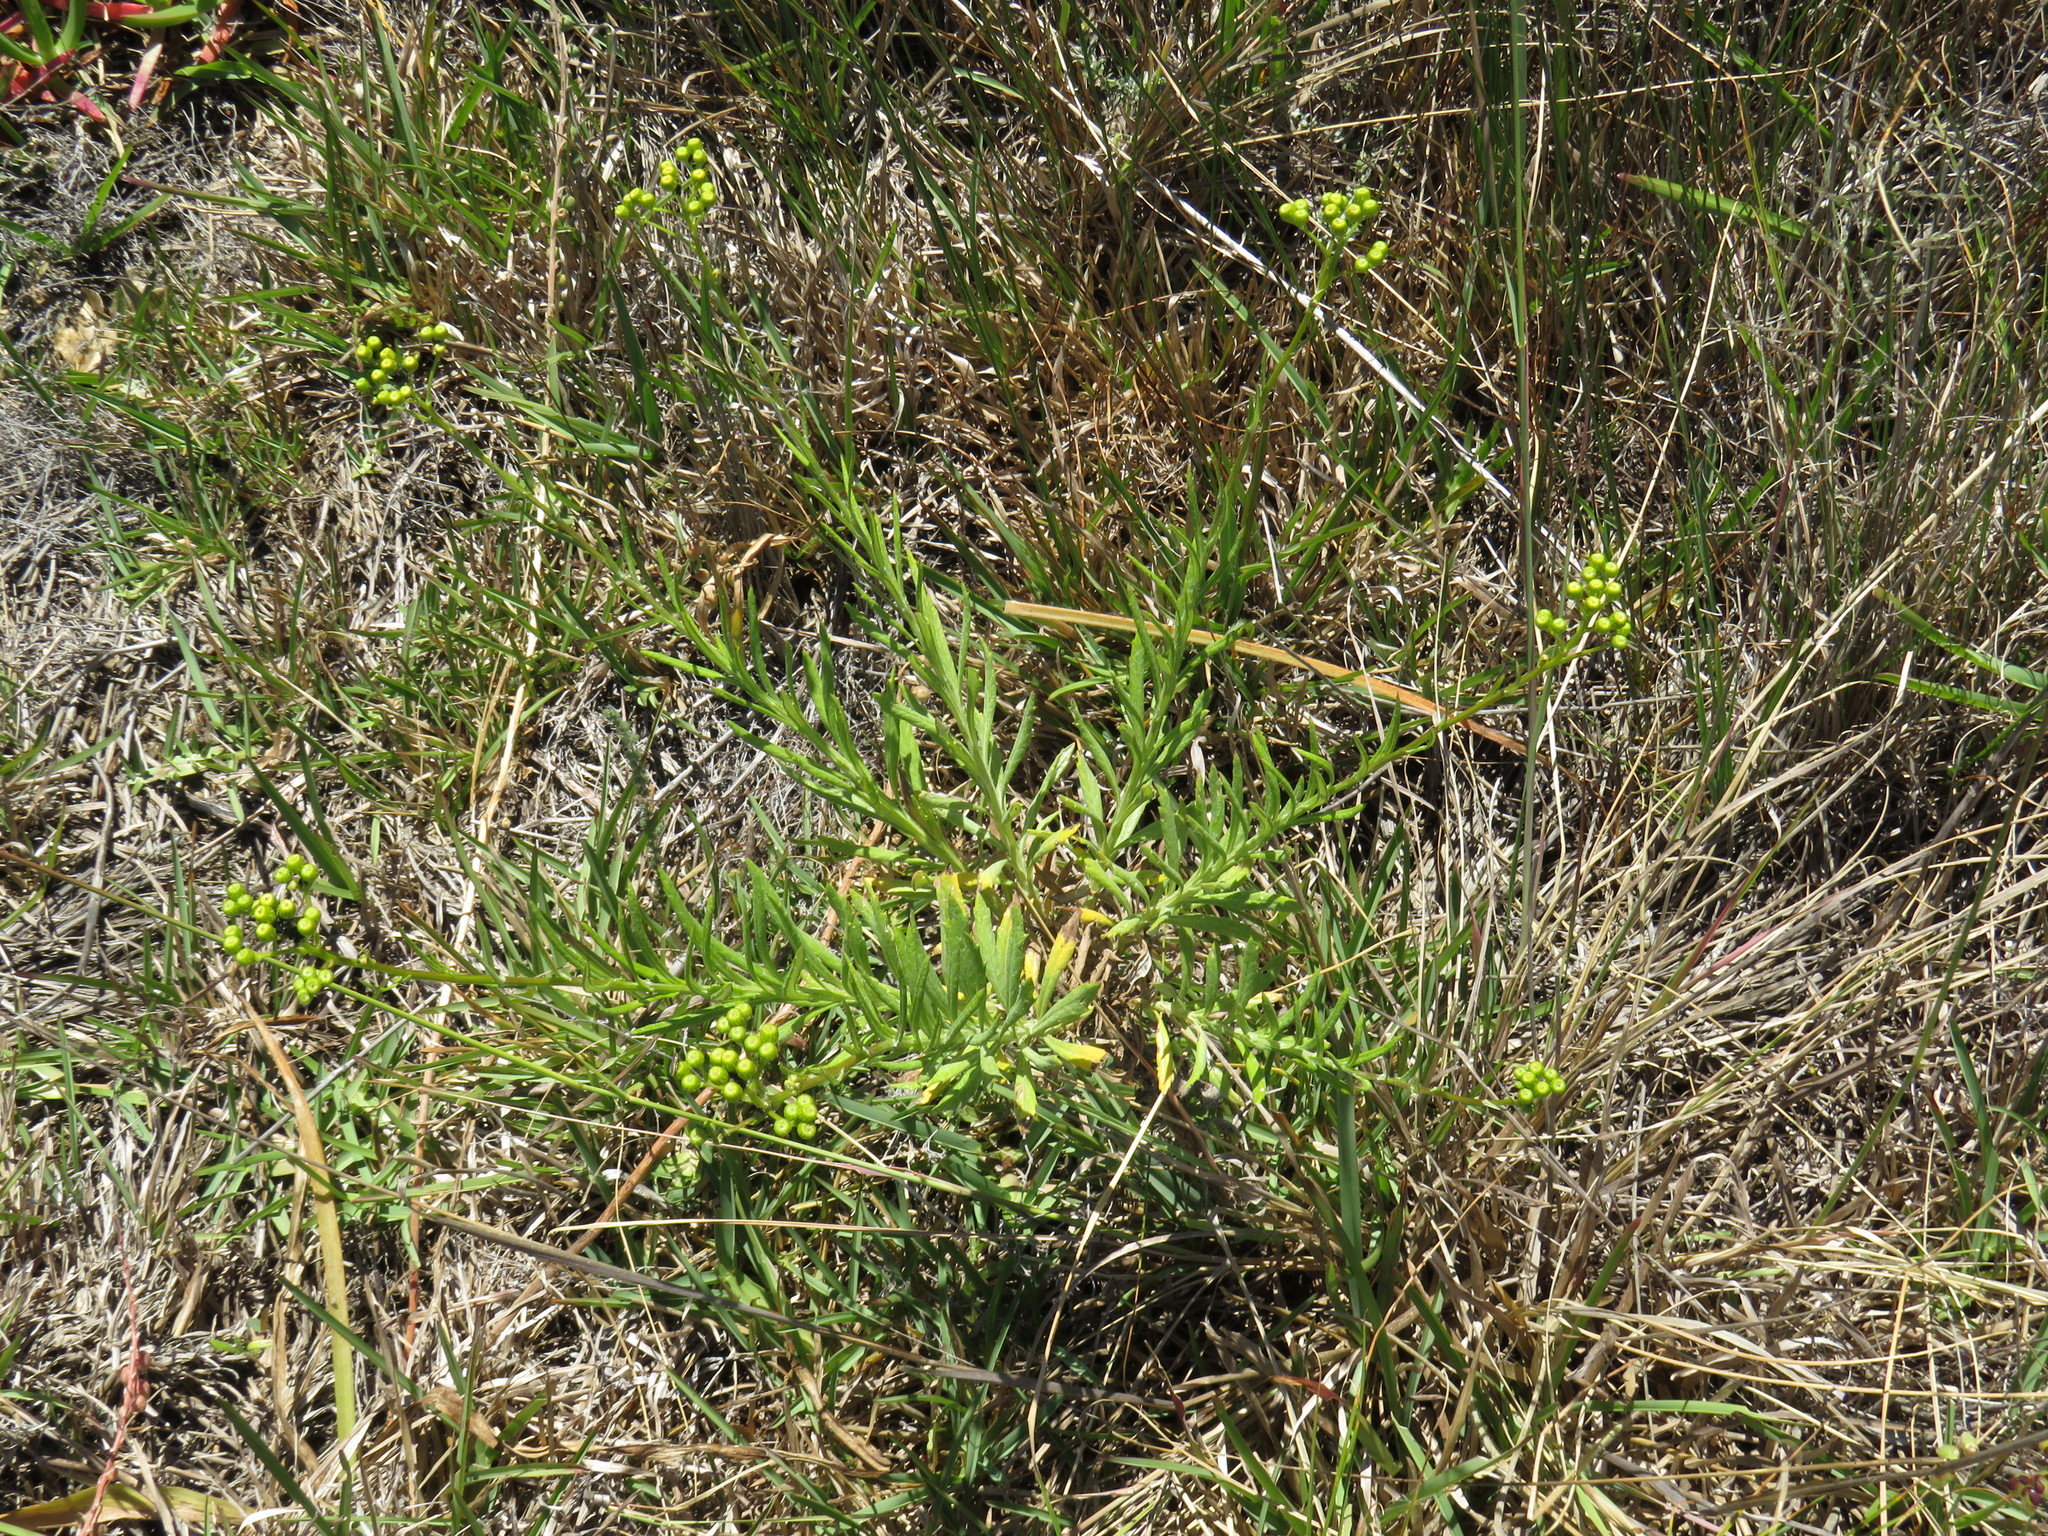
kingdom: Plantae
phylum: Tracheophyta
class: Magnoliopsida
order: Asterales
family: Asteraceae
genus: Senecio
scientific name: Senecio pterophorus
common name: Shoddy ragwort
